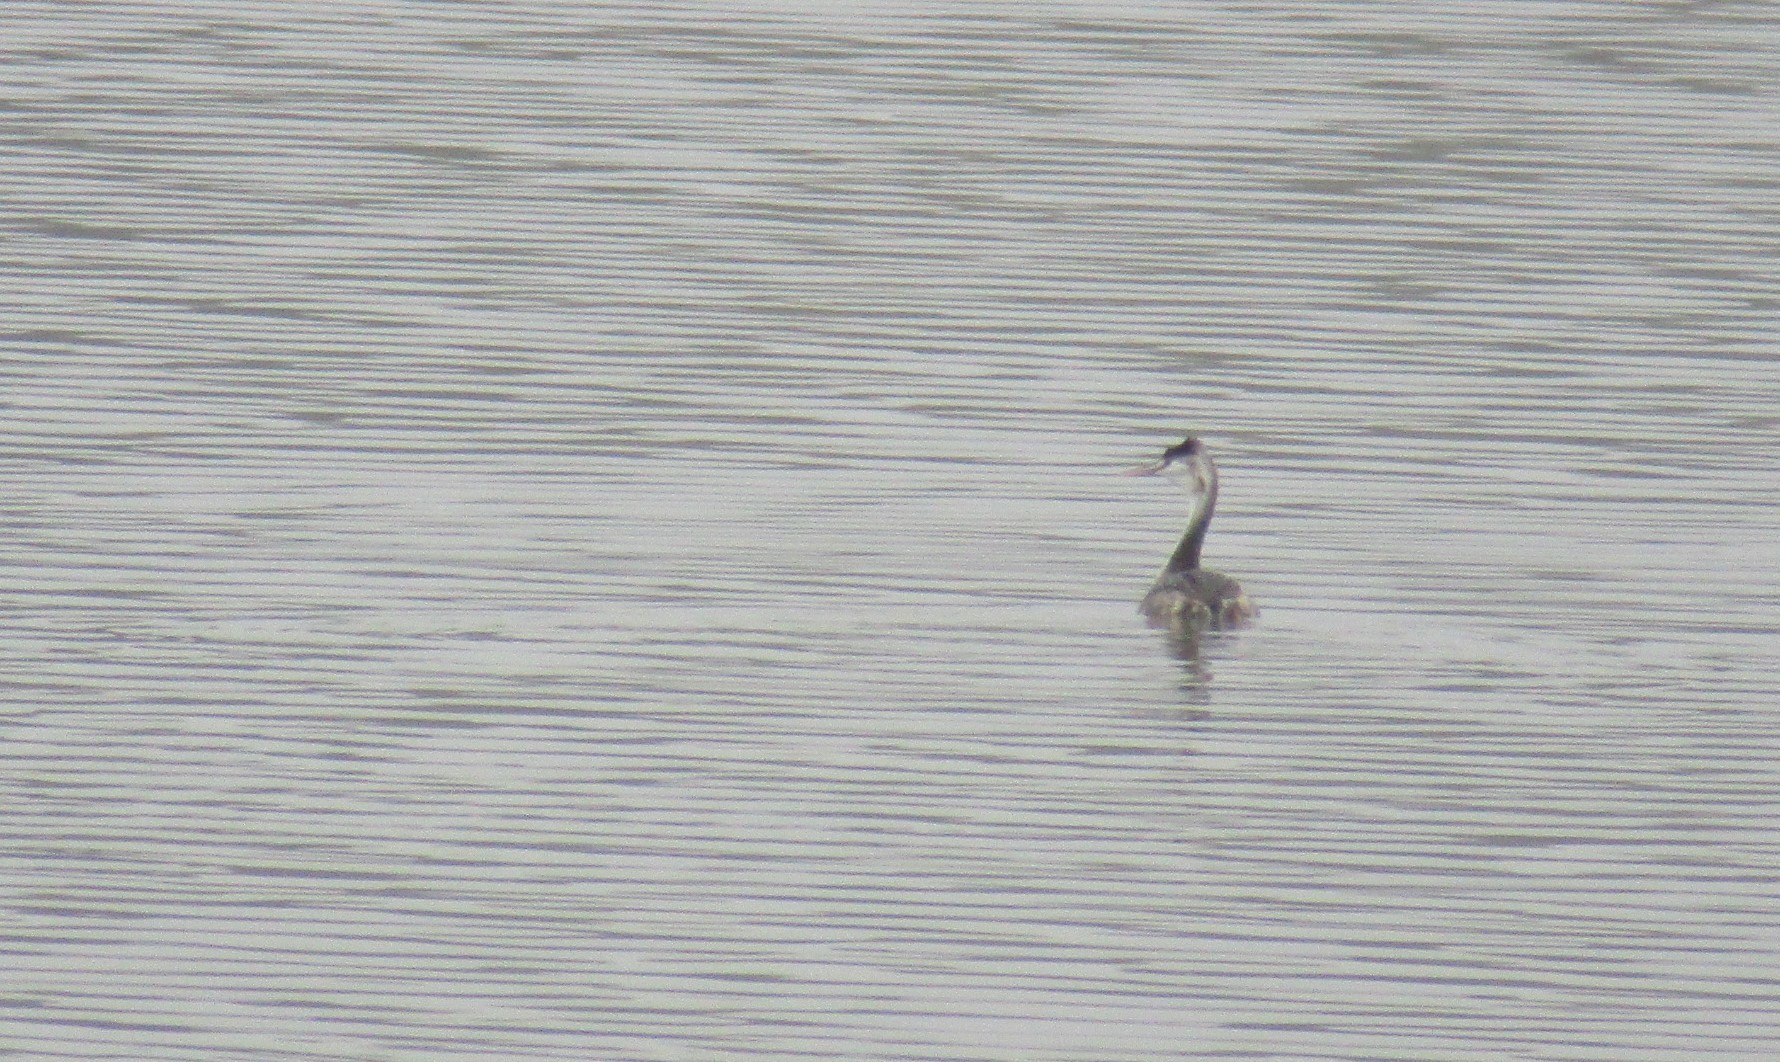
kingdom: Animalia
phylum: Chordata
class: Aves
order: Podicipediformes
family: Podicipedidae
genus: Podiceps
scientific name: Podiceps cristatus
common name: Great crested grebe
